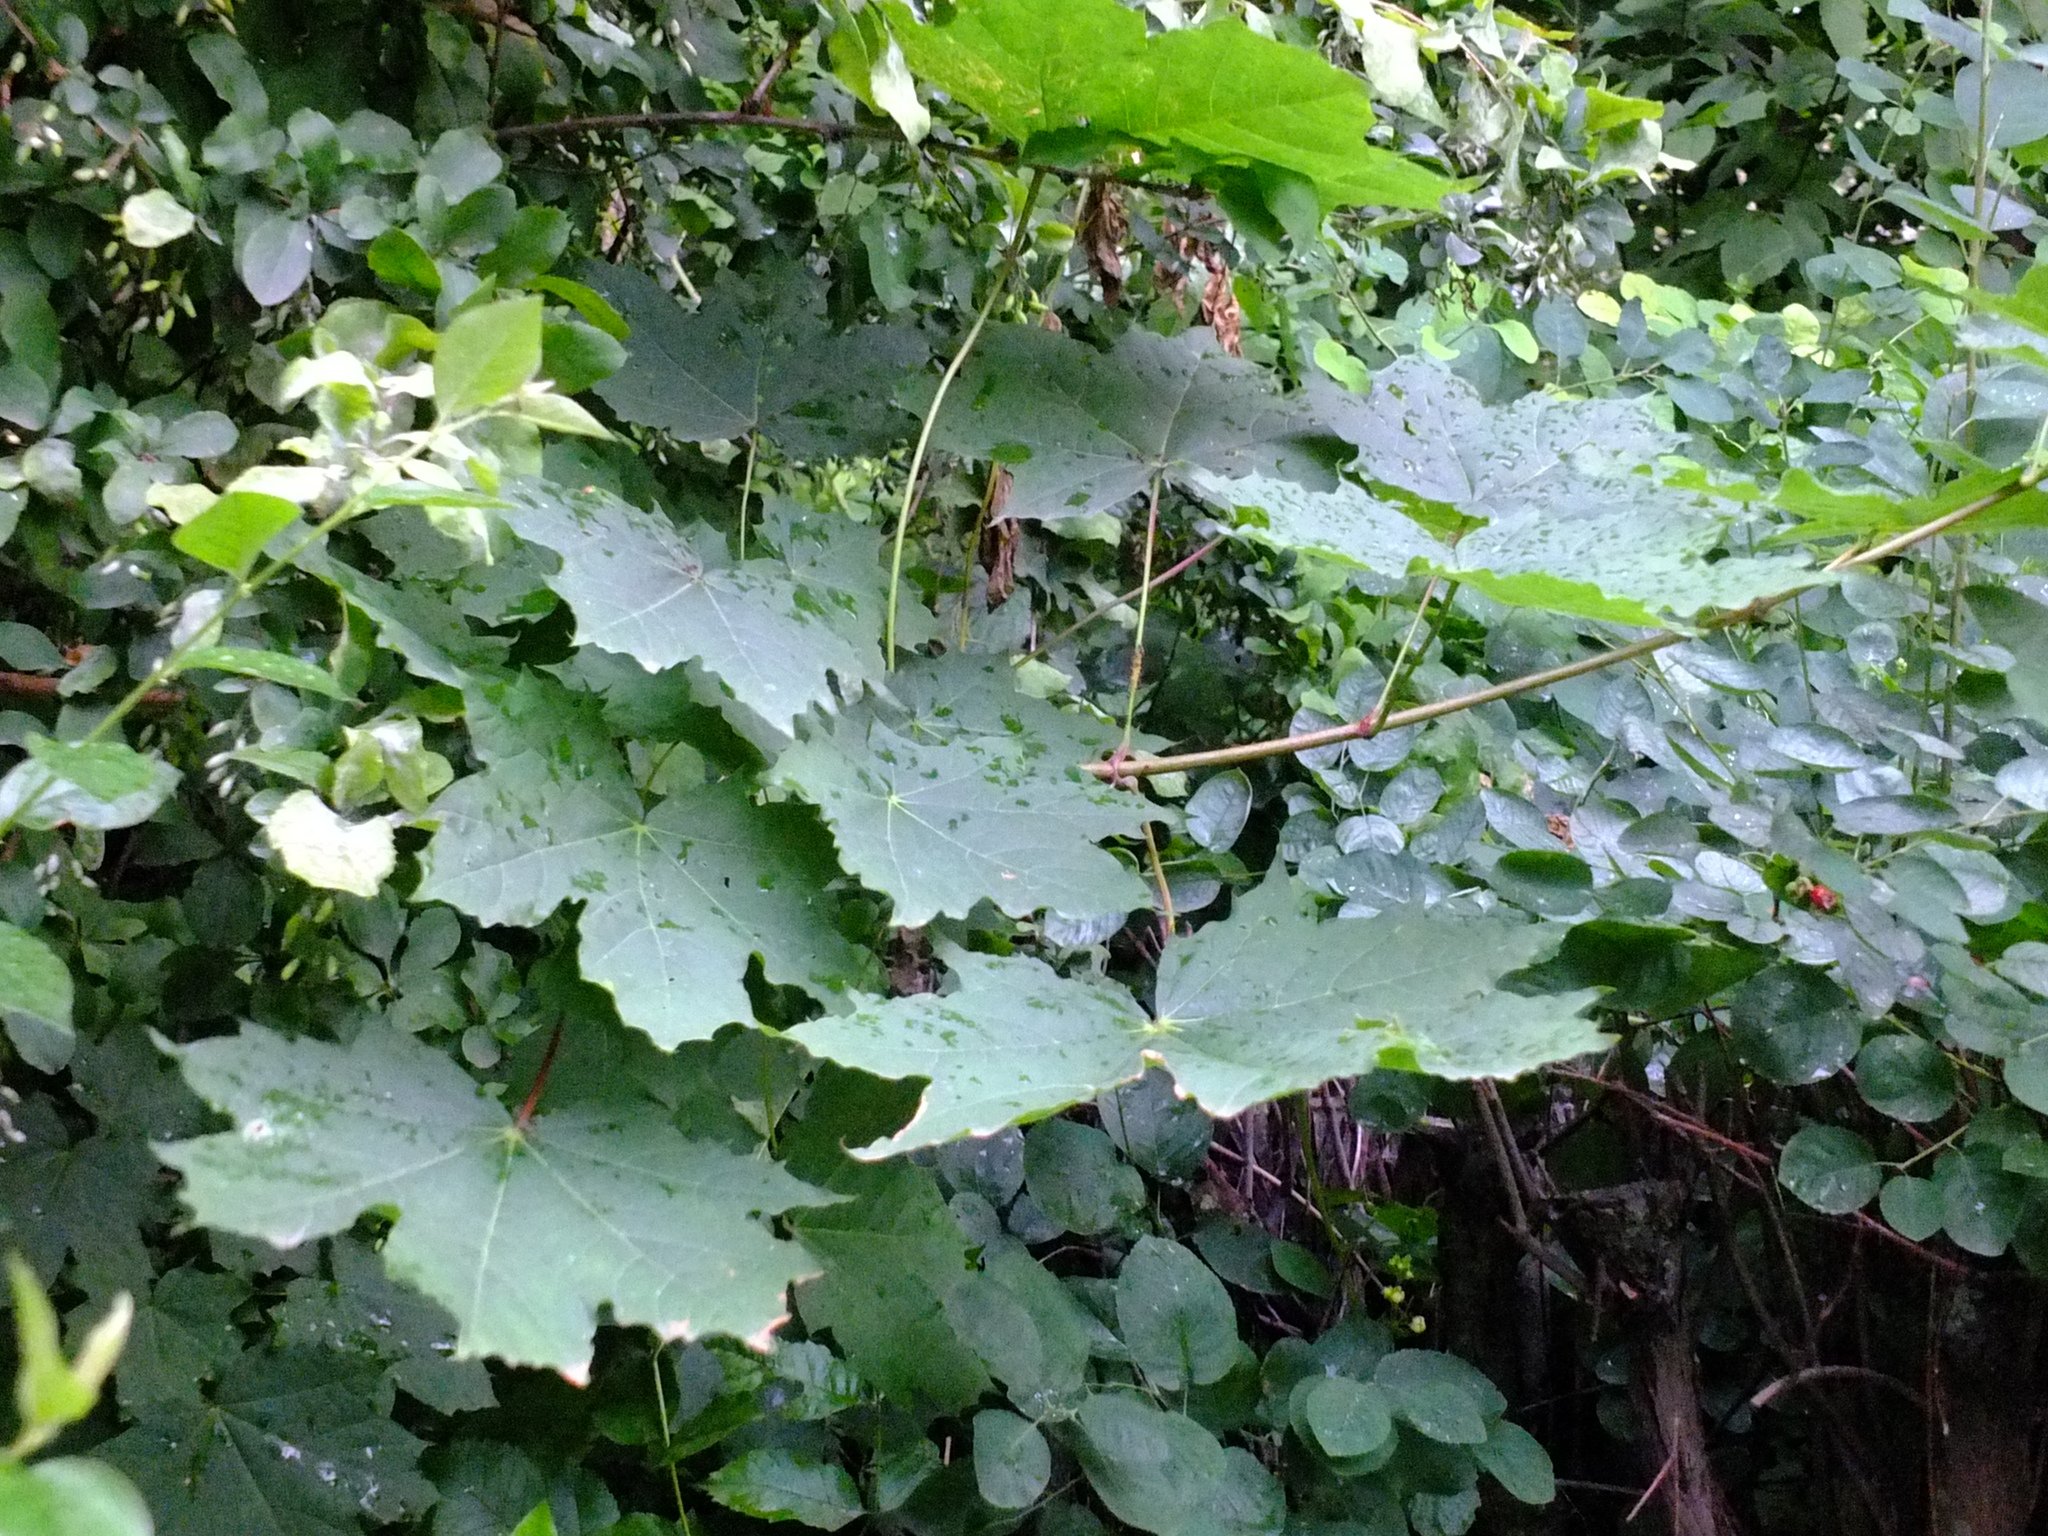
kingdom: Plantae
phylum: Tracheophyta
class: Magnoliopsida
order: Sapindales
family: Sapindaceae
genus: Acer
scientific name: Acer platanoides
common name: Norway maple
